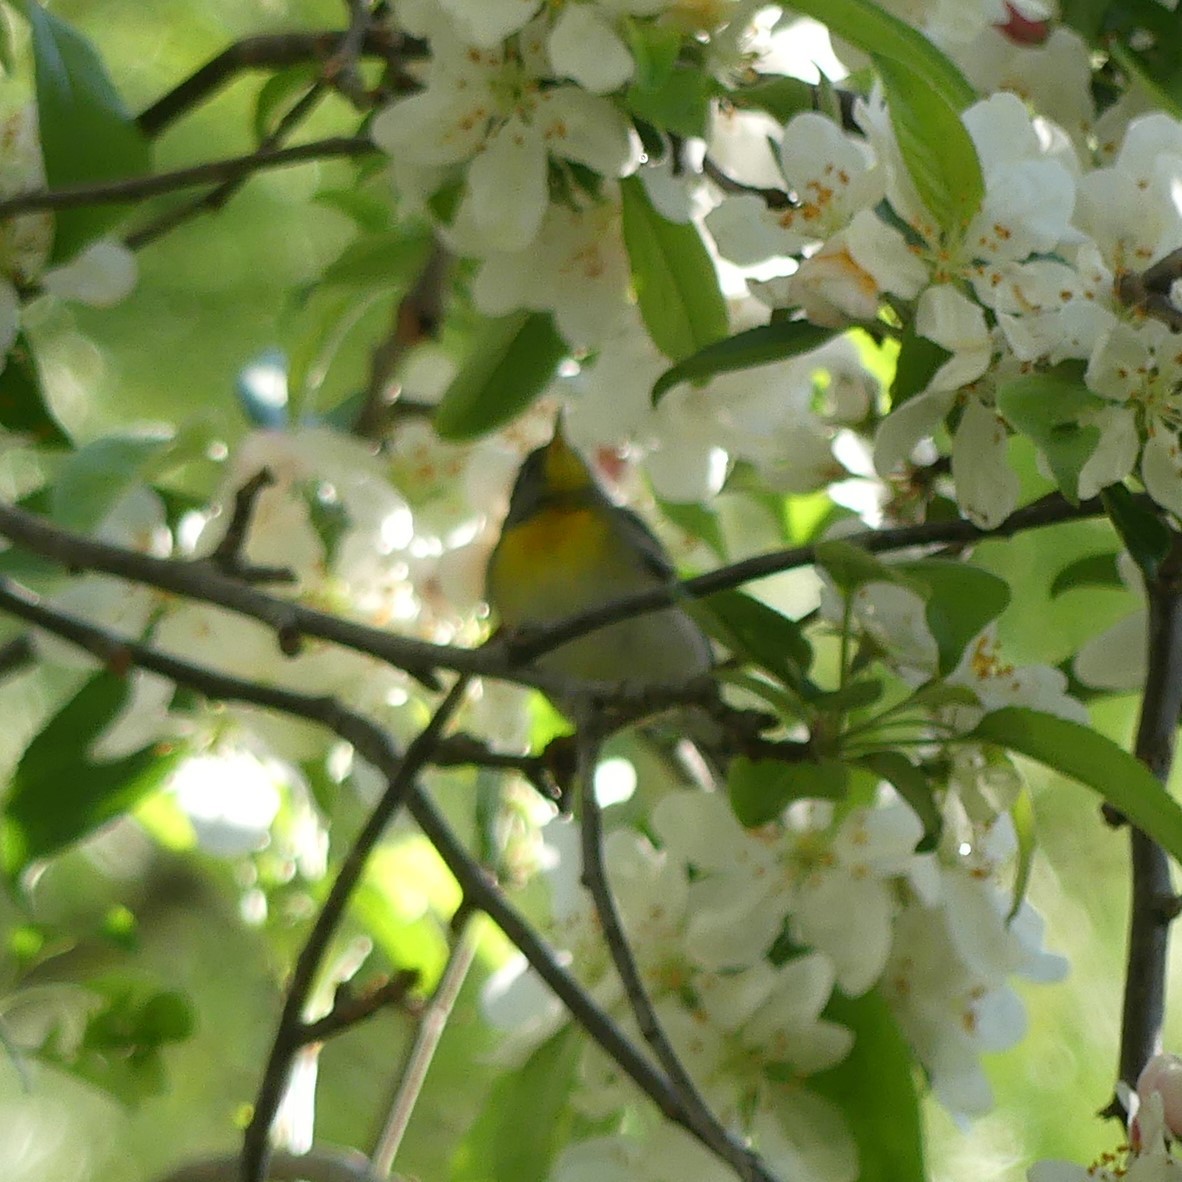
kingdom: Animalia
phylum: Chordata
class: Aves
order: Passeriformes
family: Parulidae
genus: Setophaga
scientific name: Setophaga americana
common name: Northern parula
